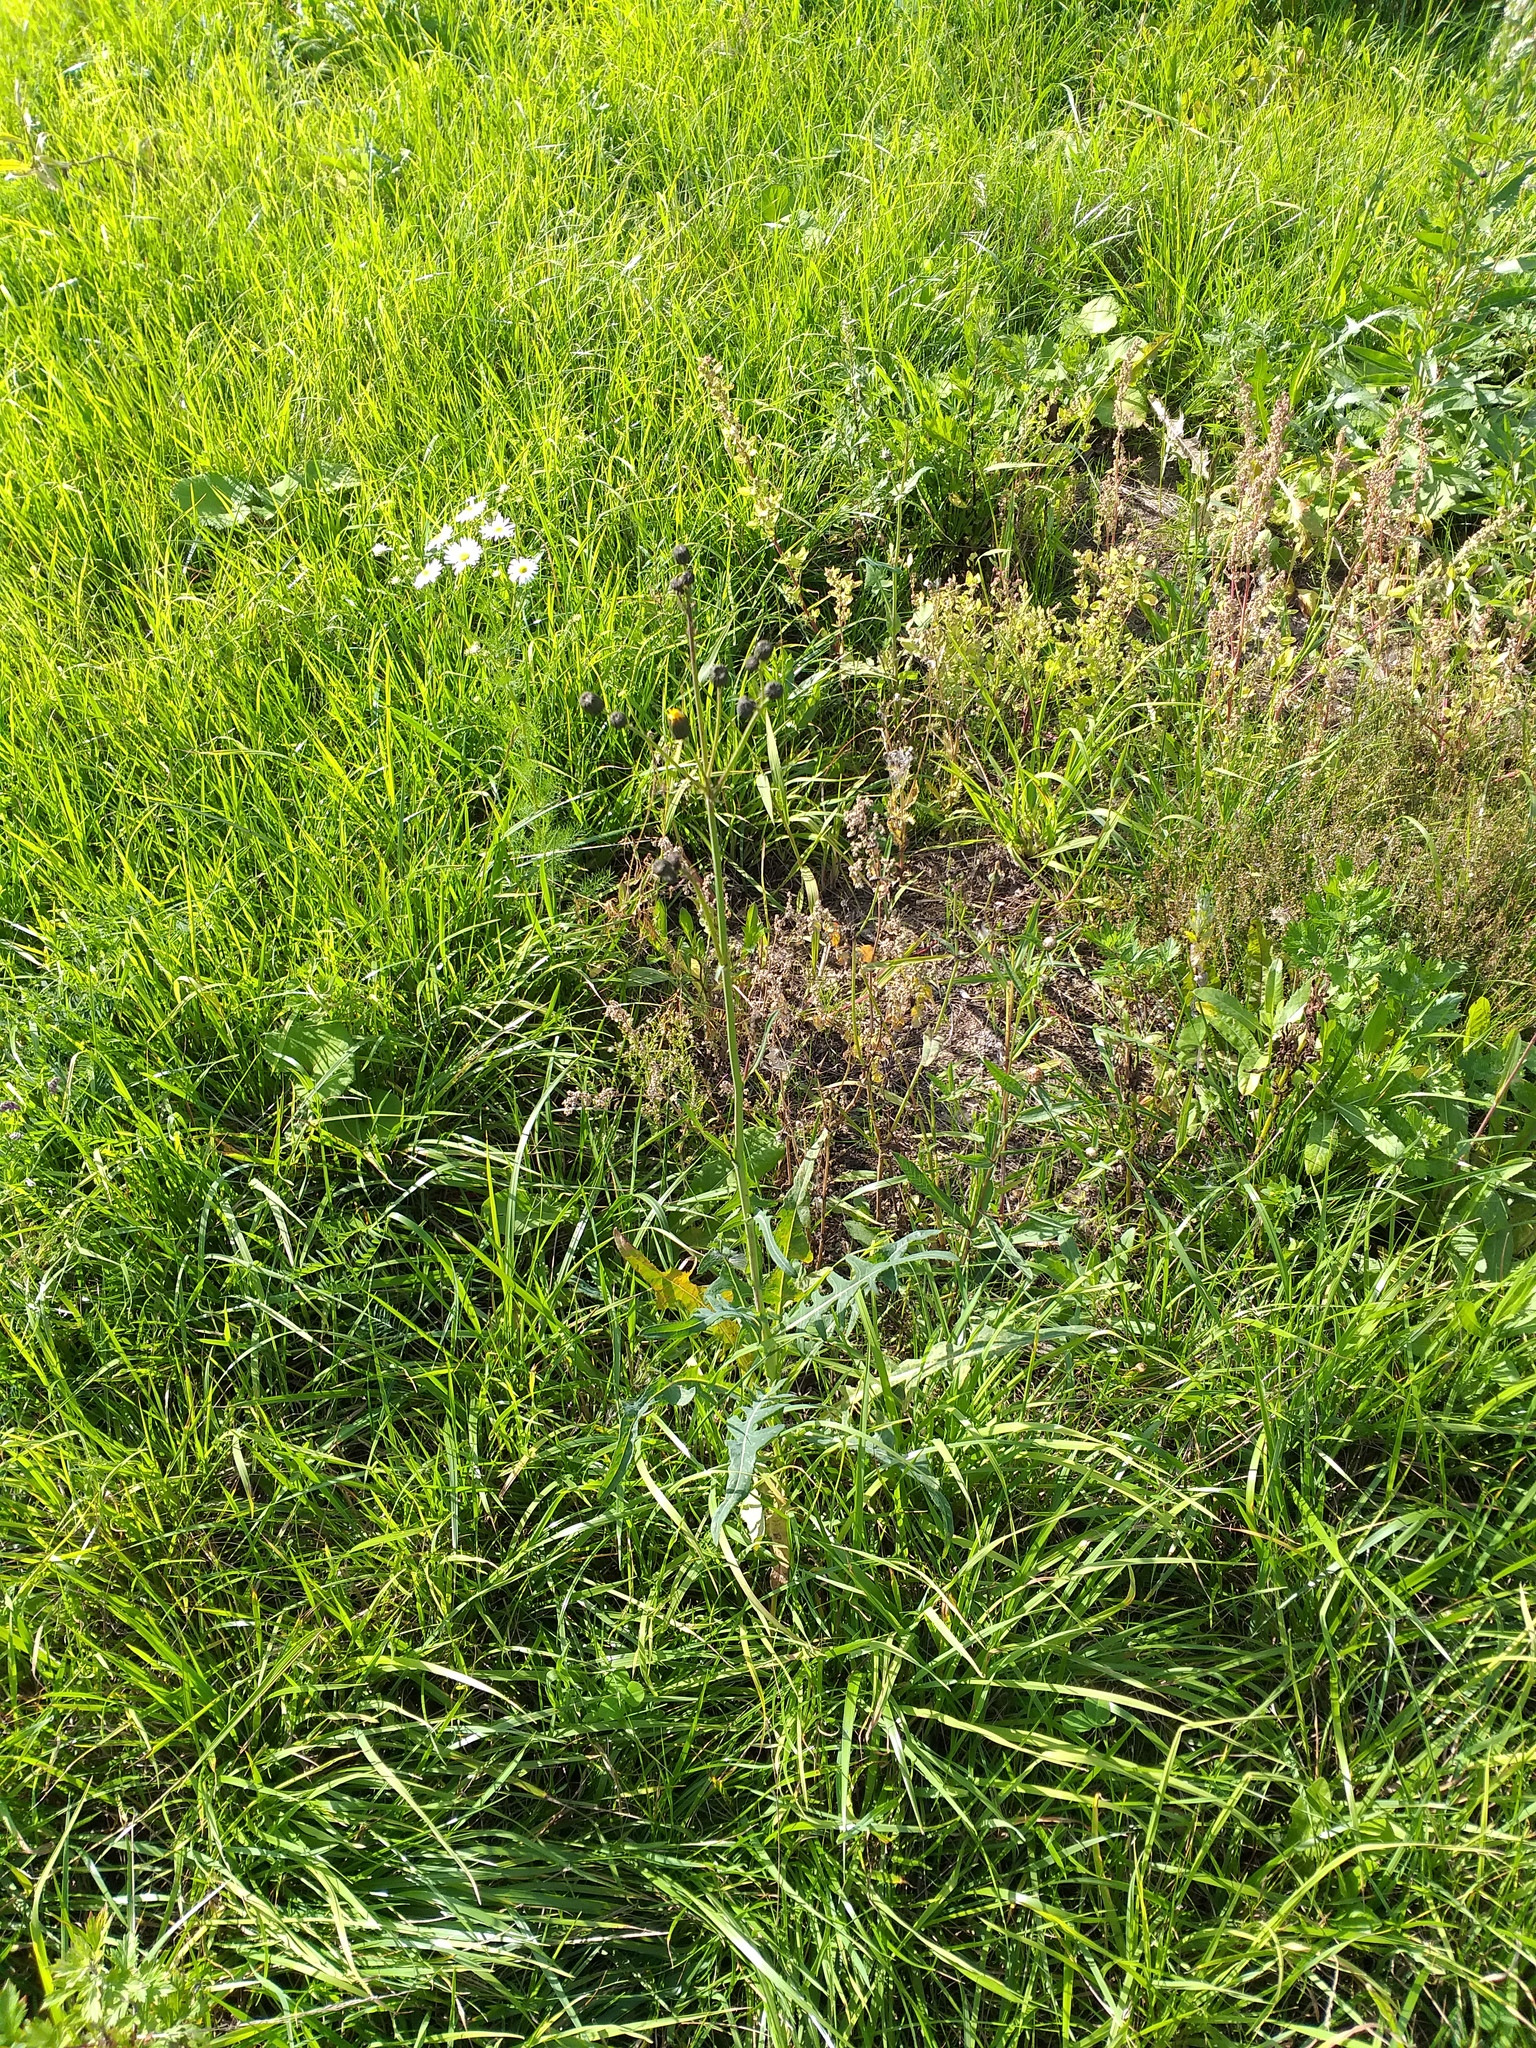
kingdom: Plantae
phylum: Tracheophyta
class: Magnoliopsida
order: Asterales
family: Asteraceae
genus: Sonchus
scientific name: Sonchus arvensis
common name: Perennial sow-thistle
